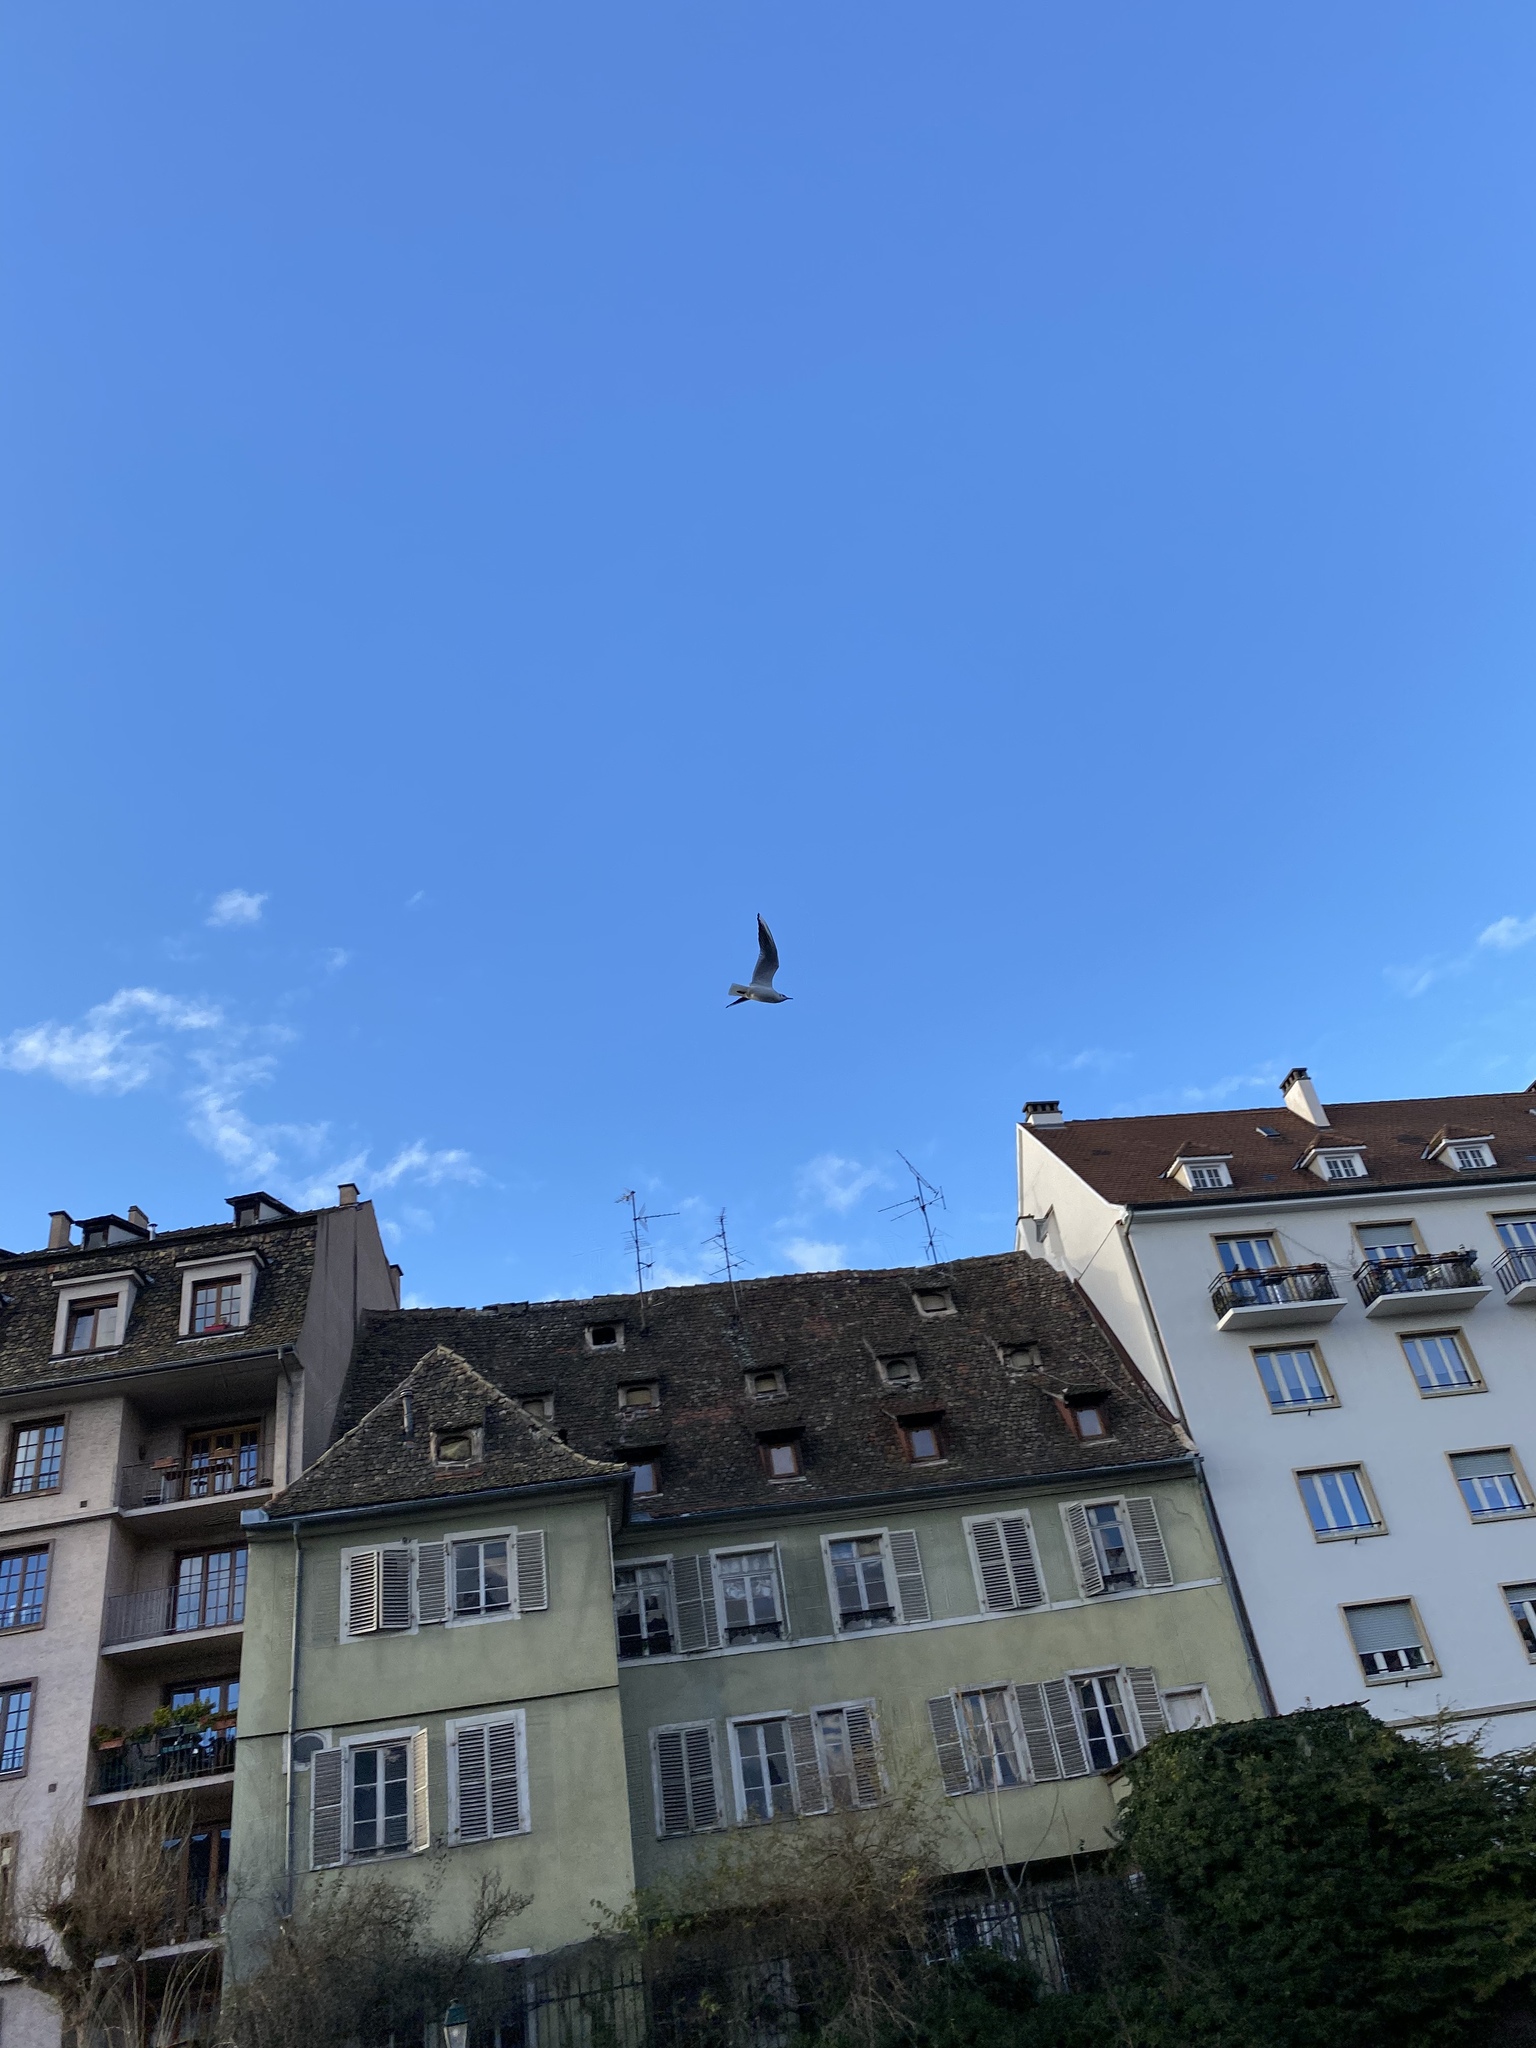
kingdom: Animalia
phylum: Chordata
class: Aves
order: Charadriiformes
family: Laridae
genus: Chroicocephalus
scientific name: Chroicocephalus ridibundus
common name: Black-headed gull
